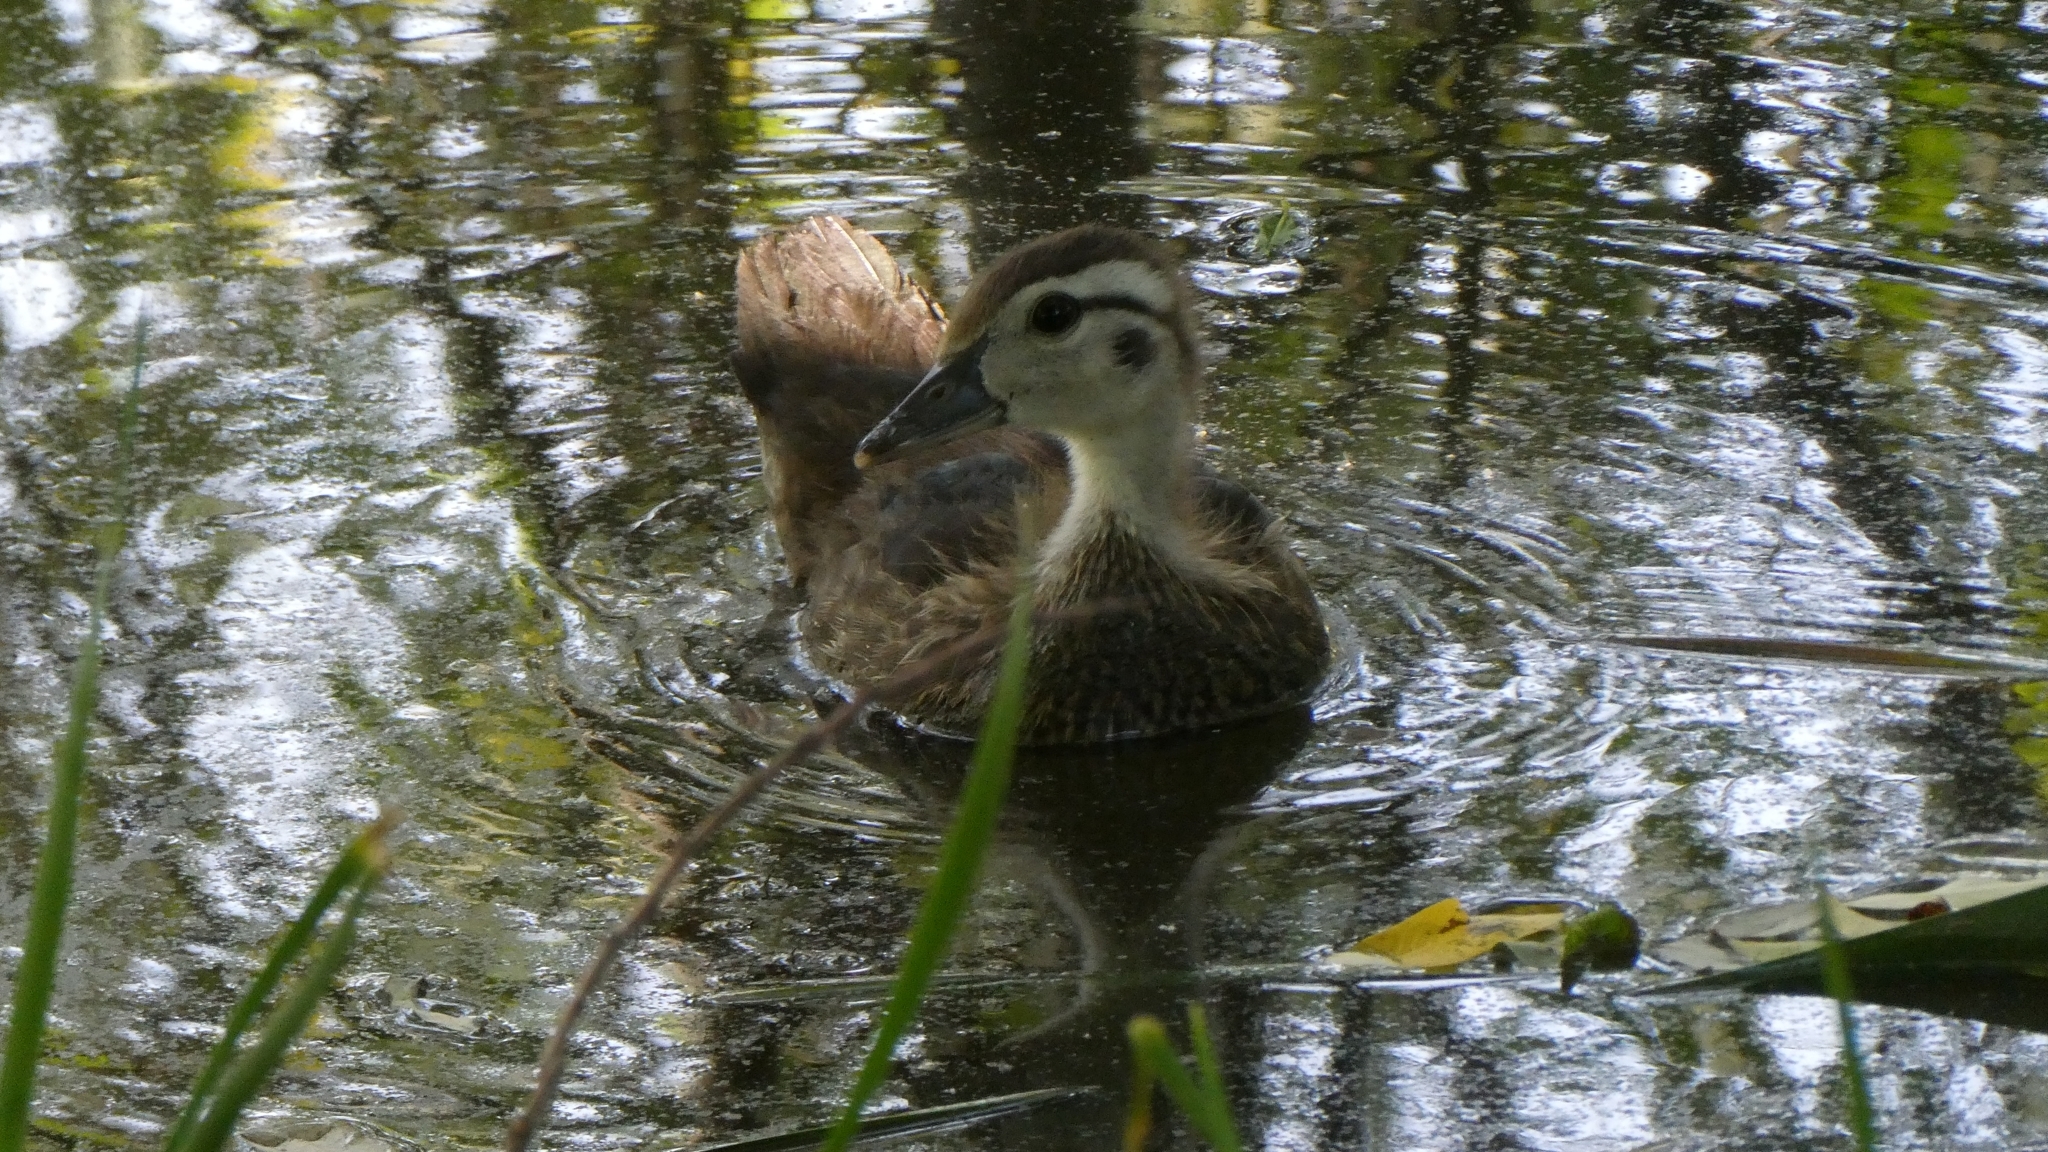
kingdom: Animalia
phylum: Chordata
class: Aves
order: Anseriformes
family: Anatidae
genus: Aix
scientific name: Aix sponsa
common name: Wood duck
